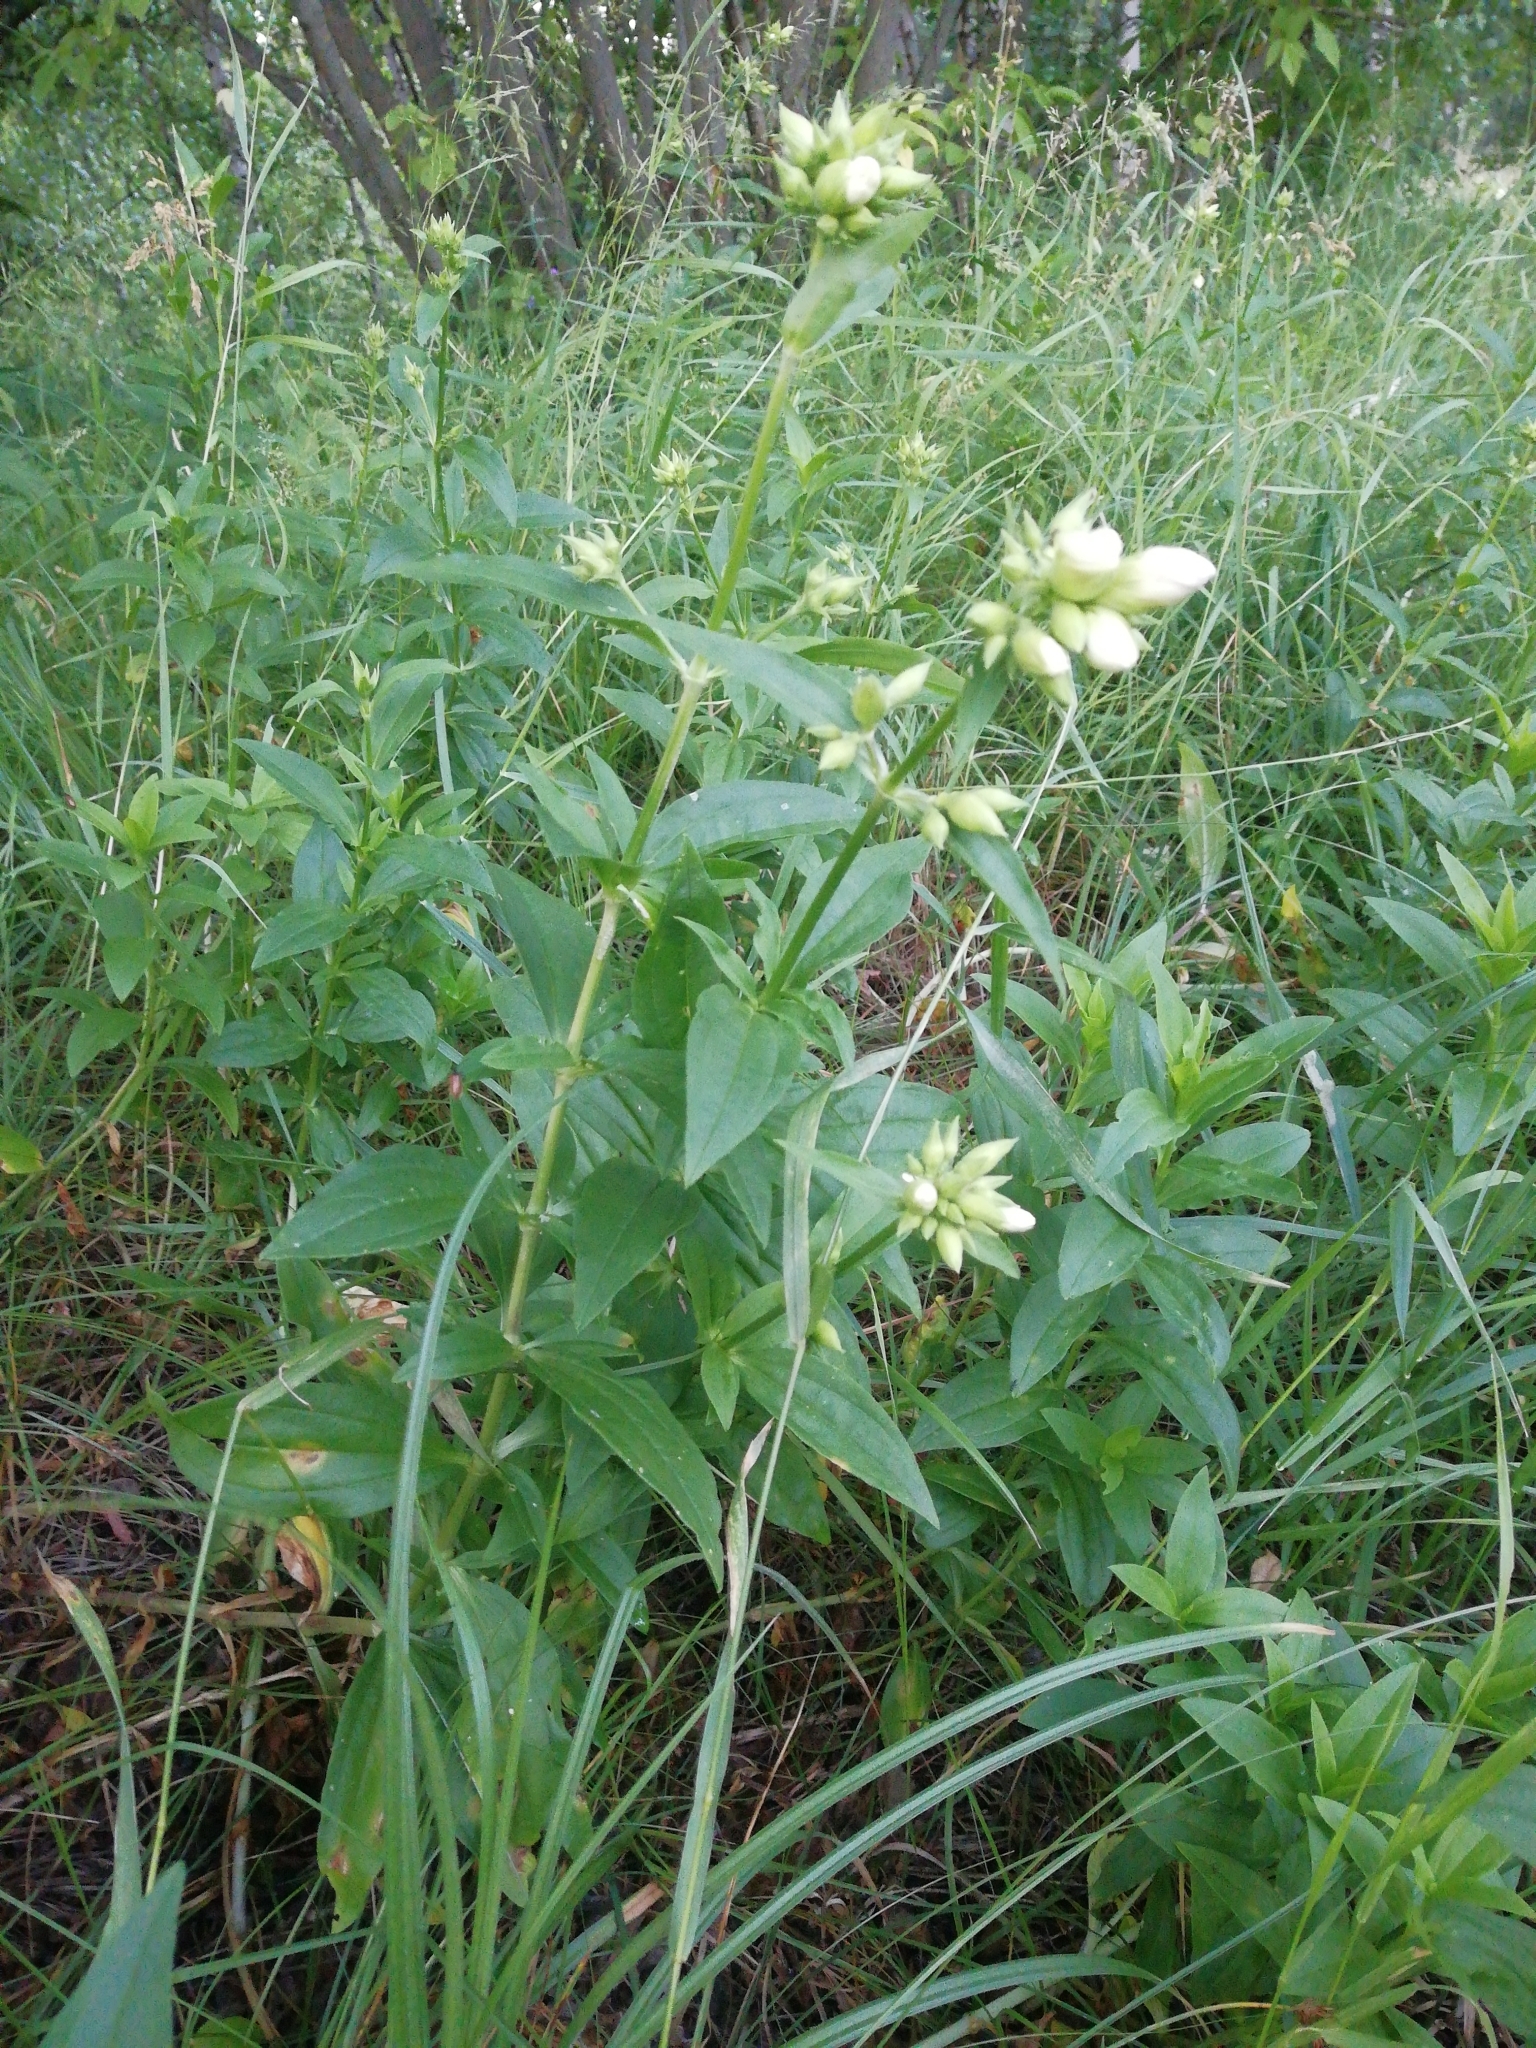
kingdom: Plantae
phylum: Tracheophyta
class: Magnoliopsida
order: Caryophyllales
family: Caryophyllaceae
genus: Saponaria
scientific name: Saponaria officinalis
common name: Soapwort
